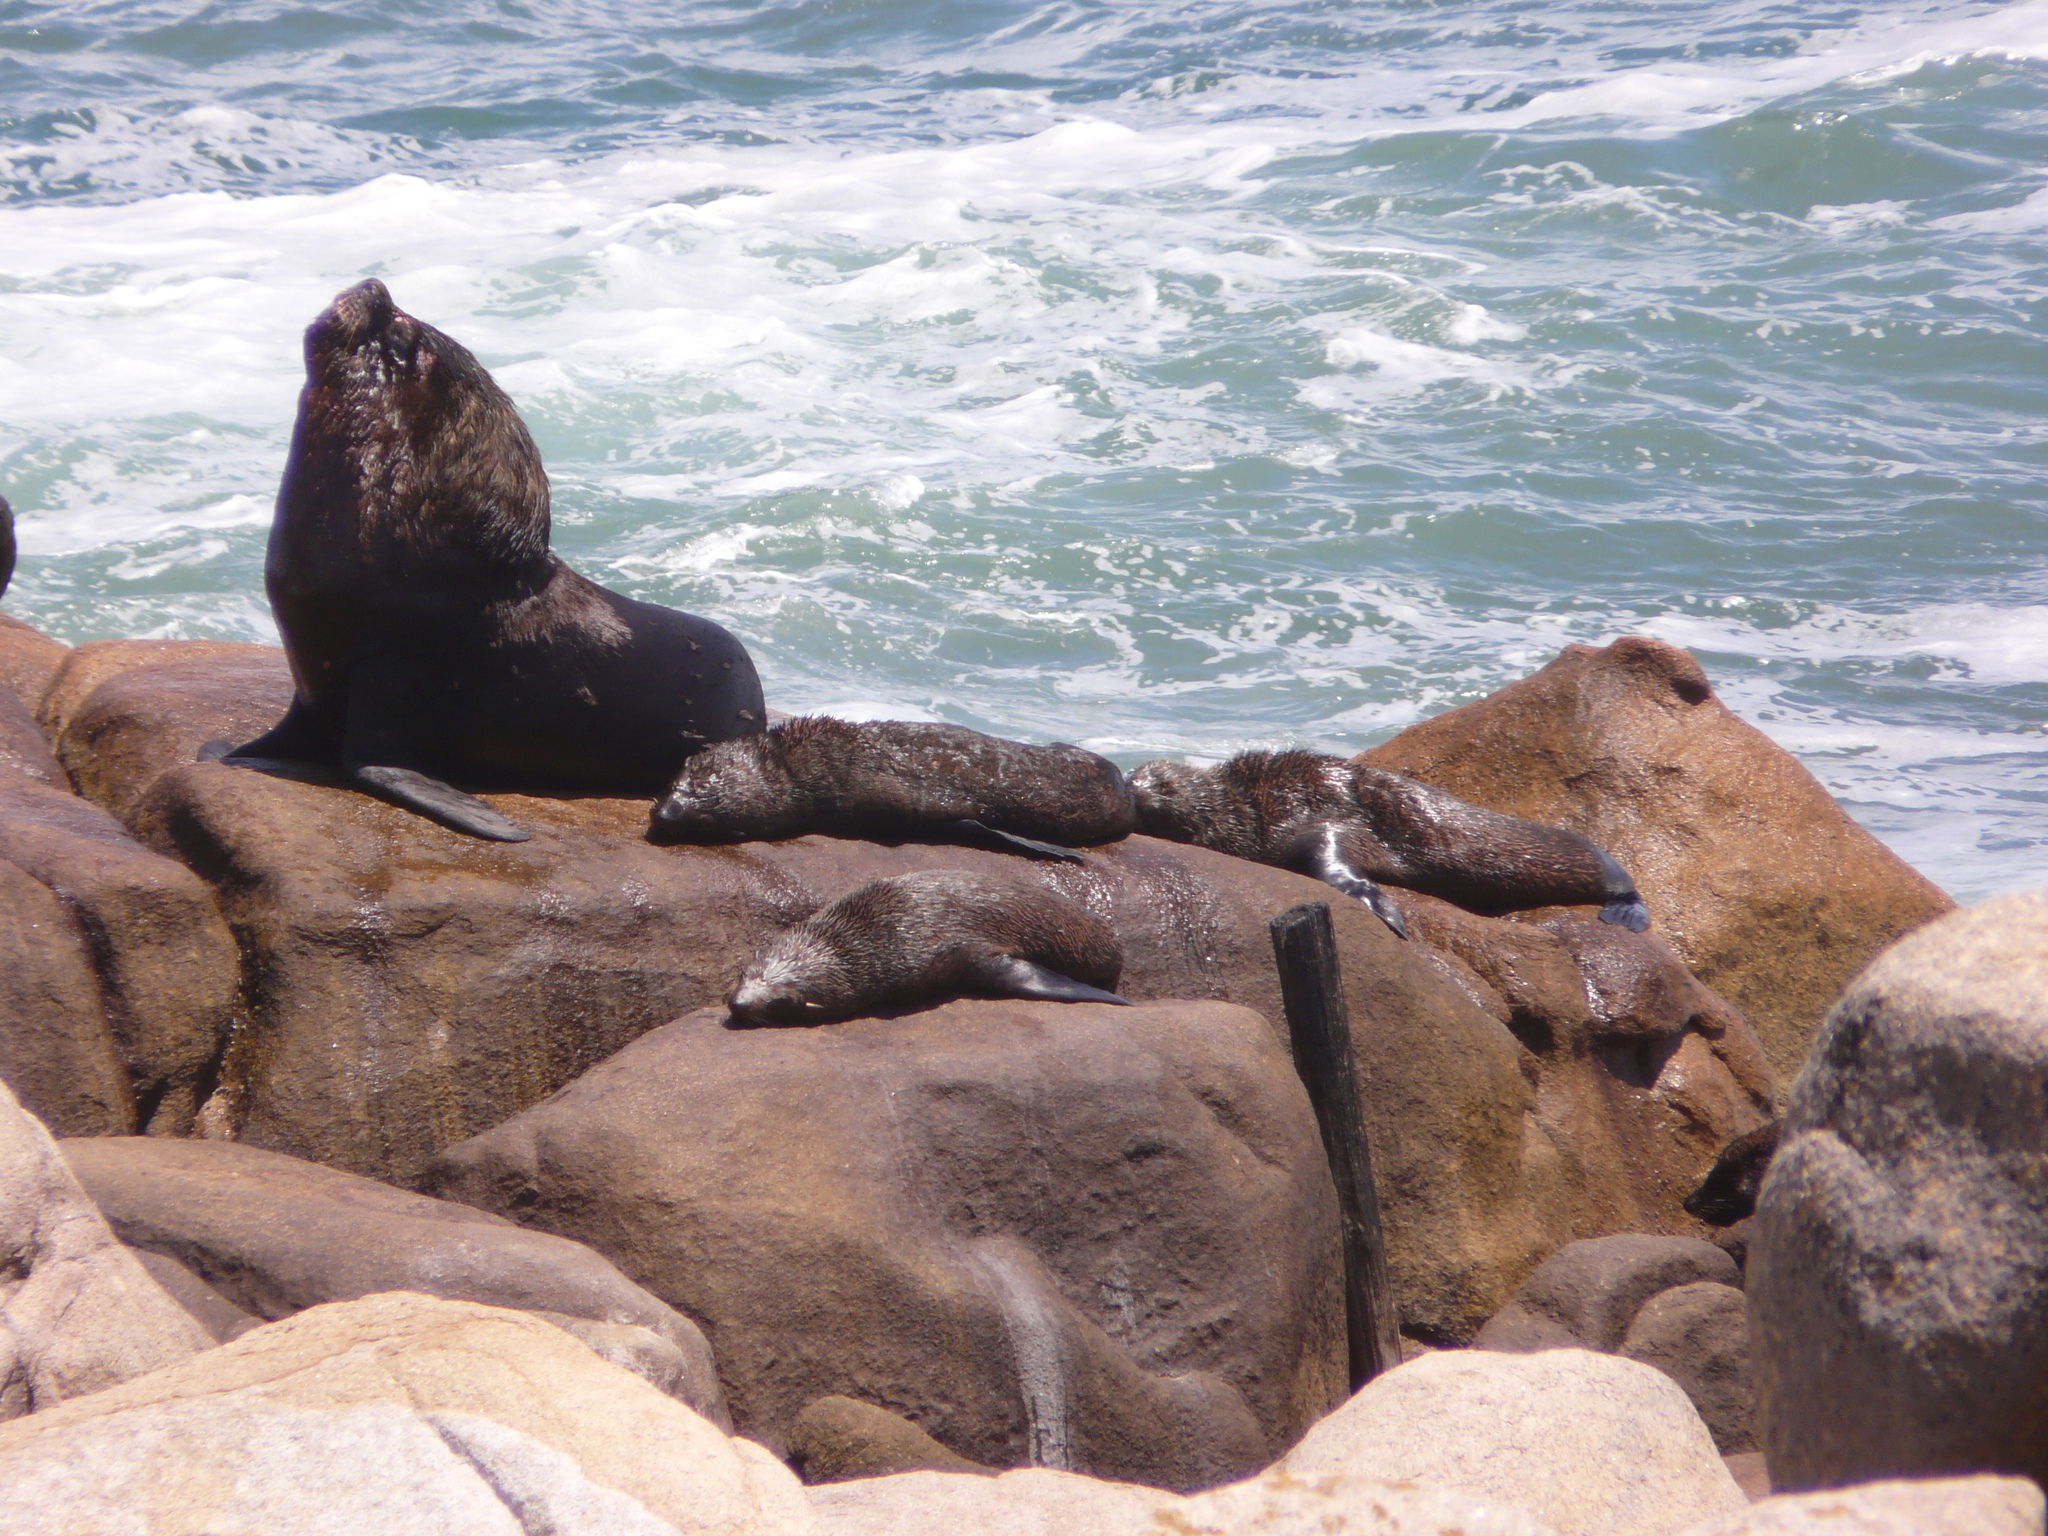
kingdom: Animalia
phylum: Chordata
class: Mammalia
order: Carnivora
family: Otariidae
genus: Otaria
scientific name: Otaria byronia
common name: South american sea lion
